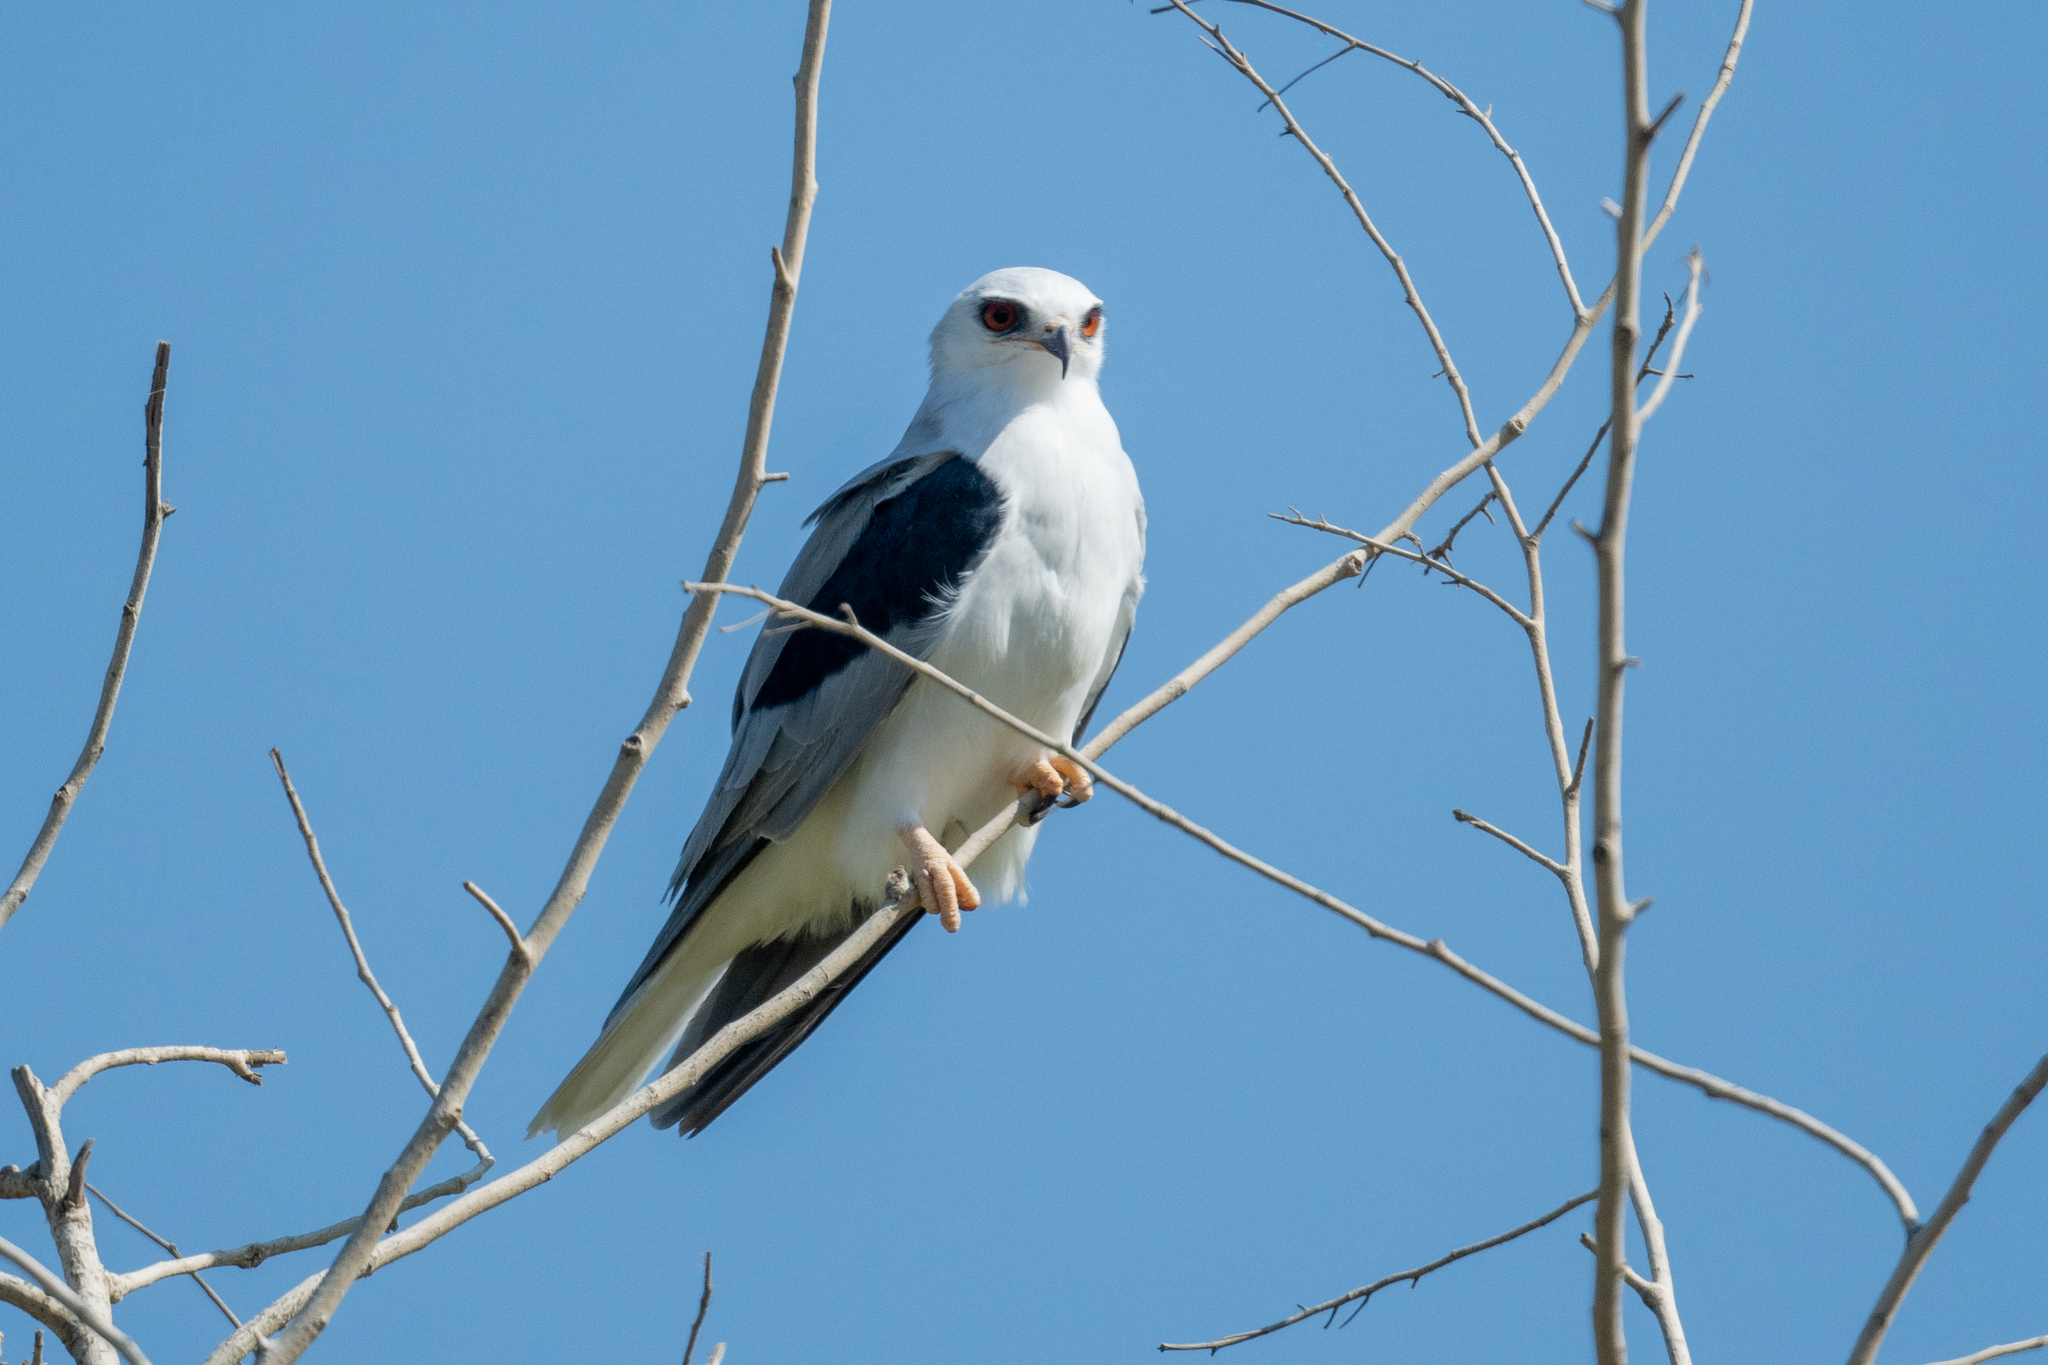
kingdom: Animalia
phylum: Chordata
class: Aves
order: Accipitriformes
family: Accipitridae
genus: Elanus
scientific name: Elanus leucurus
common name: White-tailed kite
